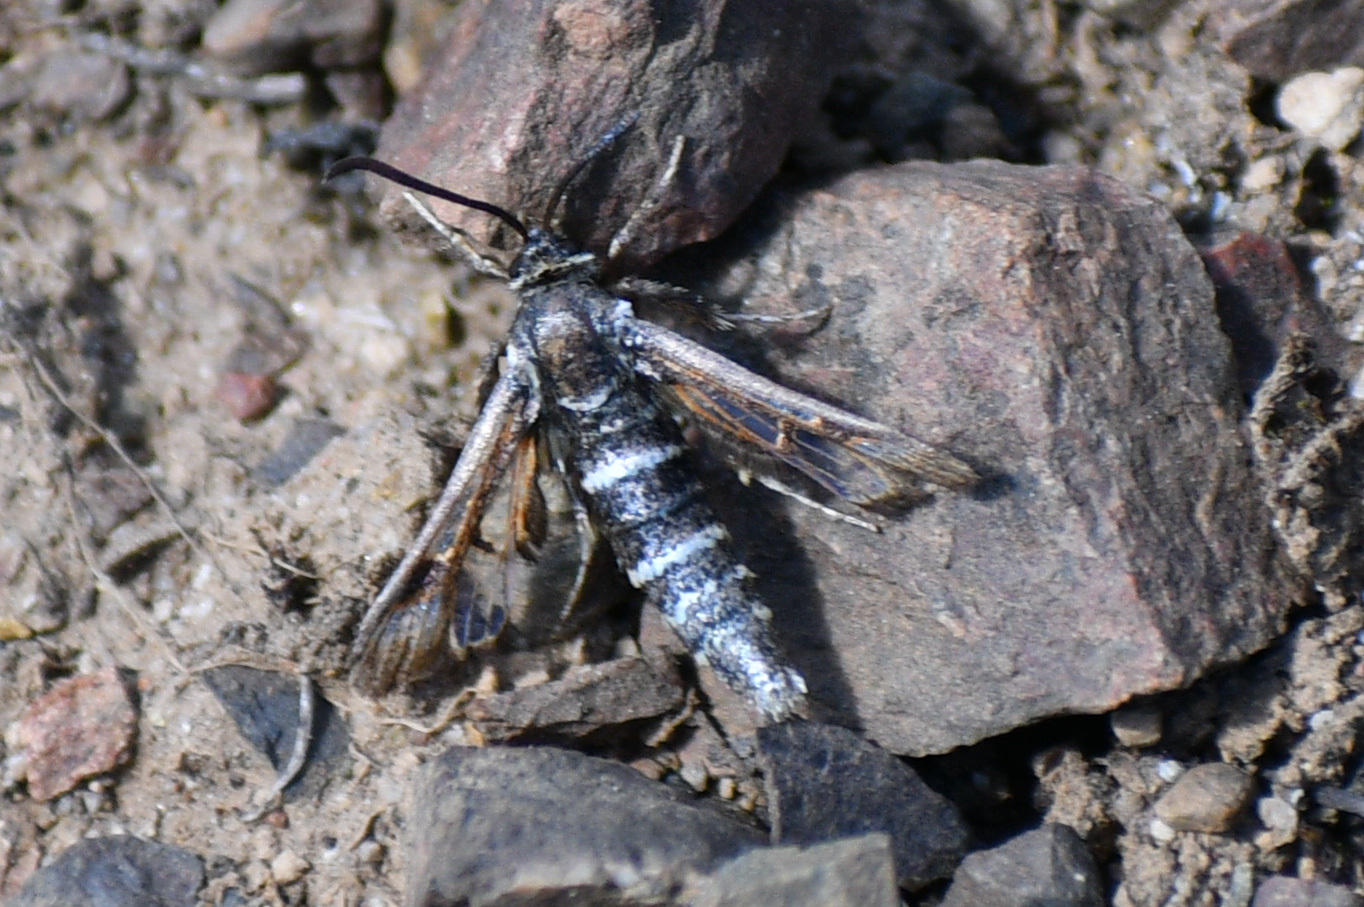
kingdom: Animalia
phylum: Arthropoda
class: Insecta
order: Lepidoptera
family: Sesiidae
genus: Albuna
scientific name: Albuna pyramidalis
